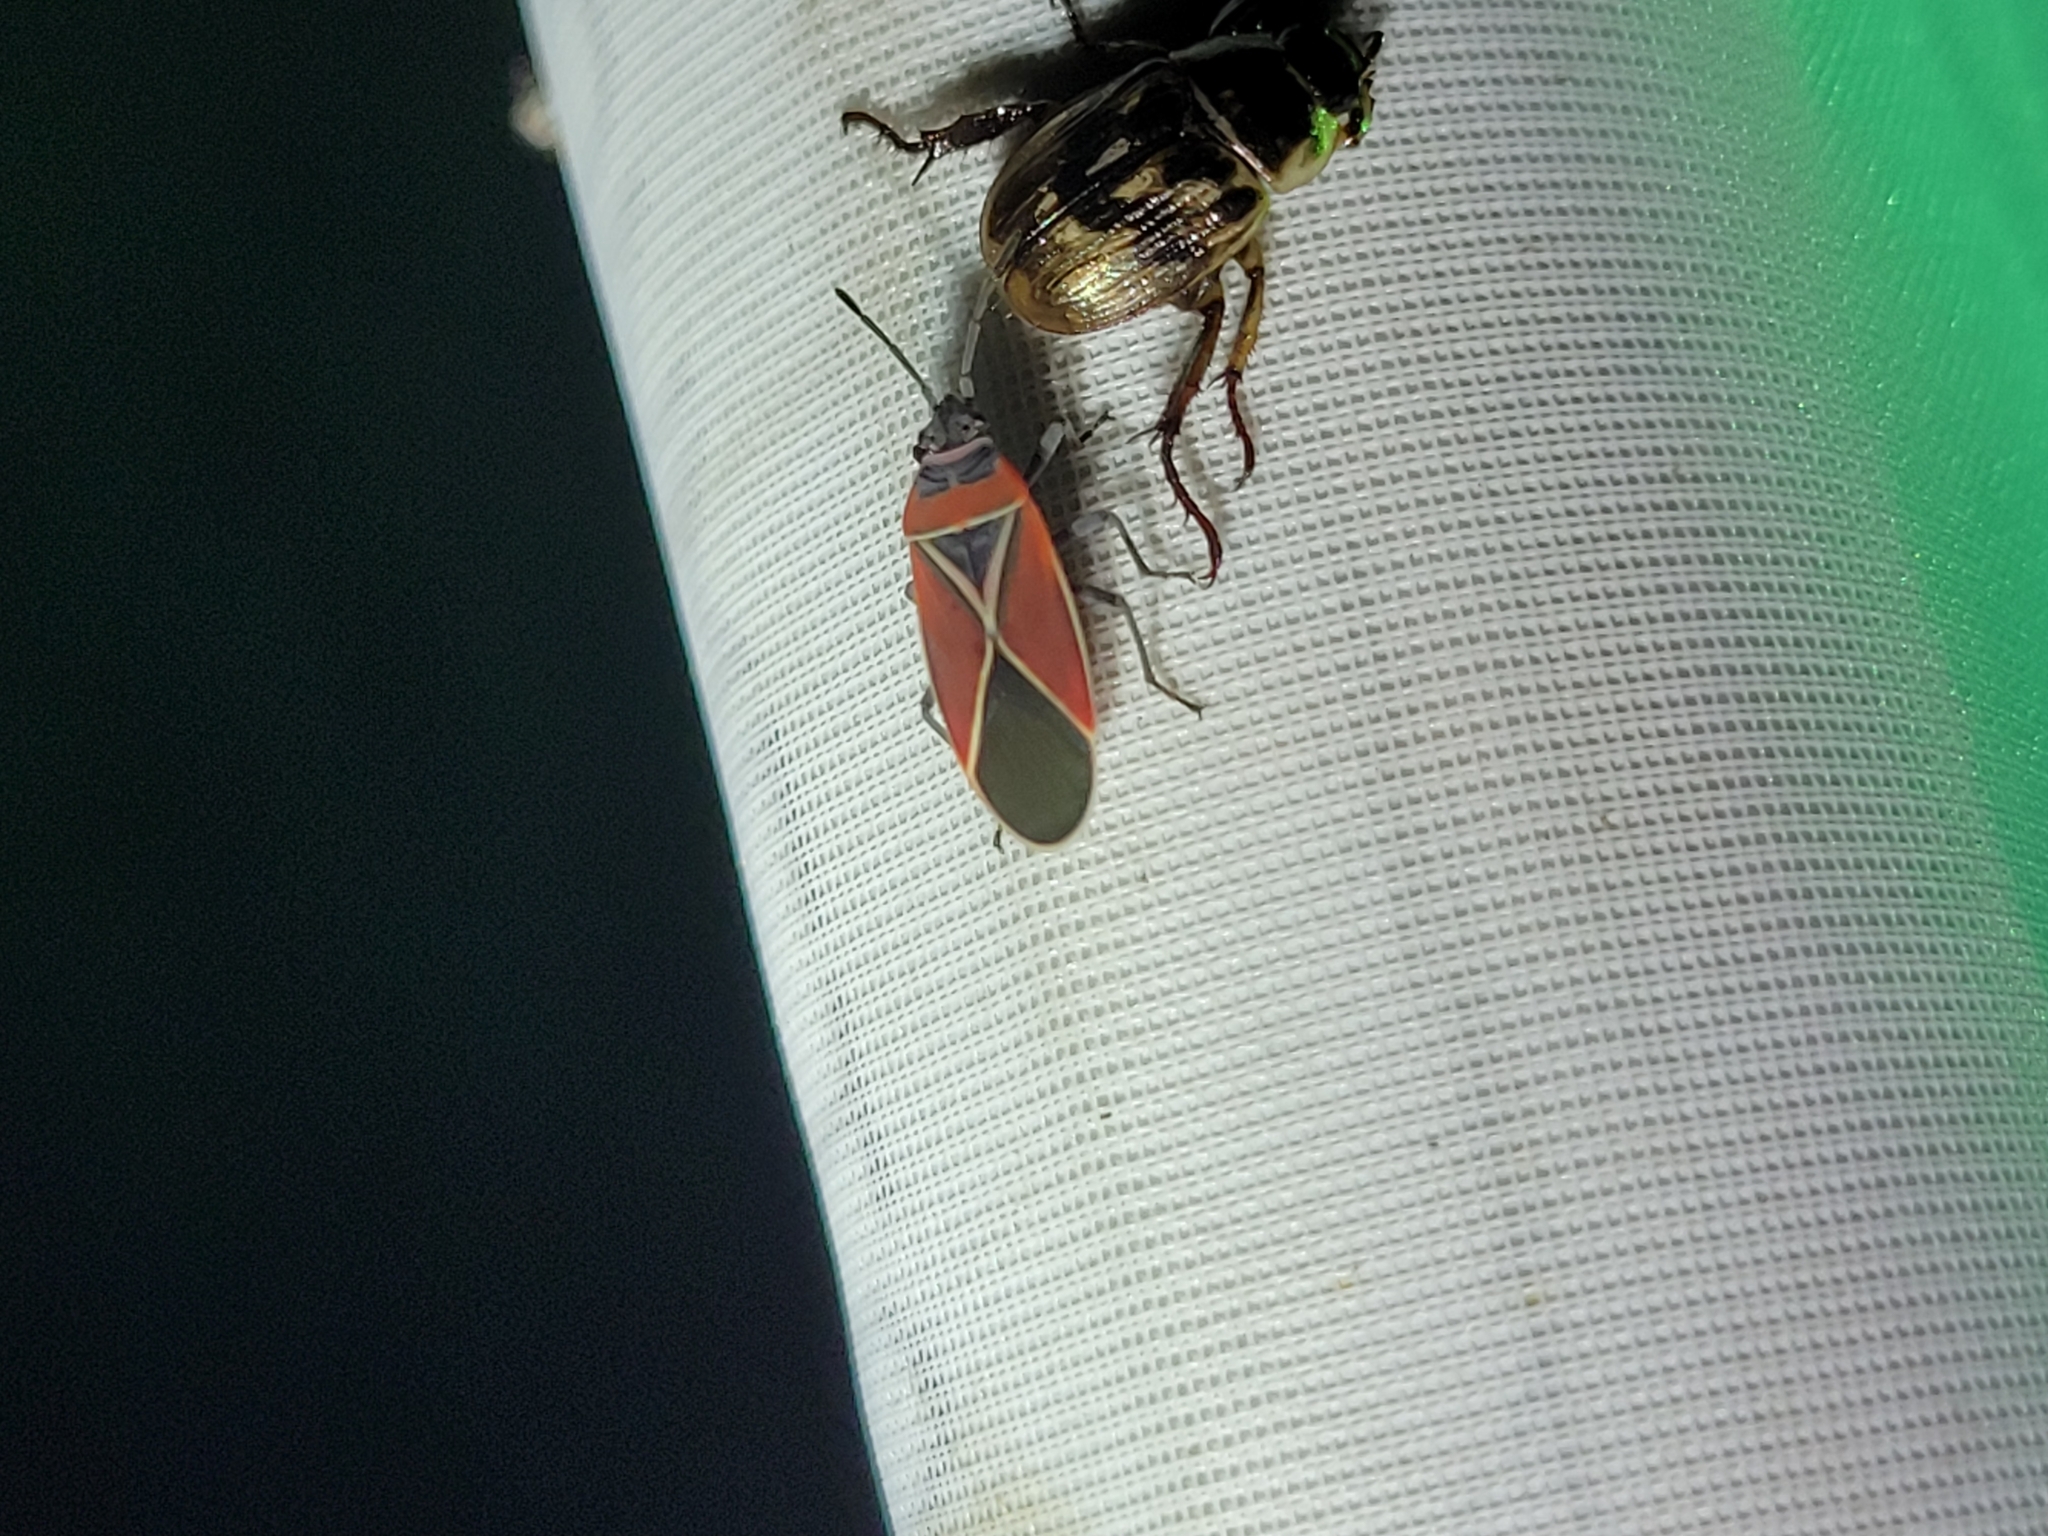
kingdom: Animalia
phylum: Arthropoda
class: Insecta
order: Hemiptera
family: Lygaeidae
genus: Neacoryphus
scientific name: Neacoryphus bicrucis
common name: Lygaeid bug
